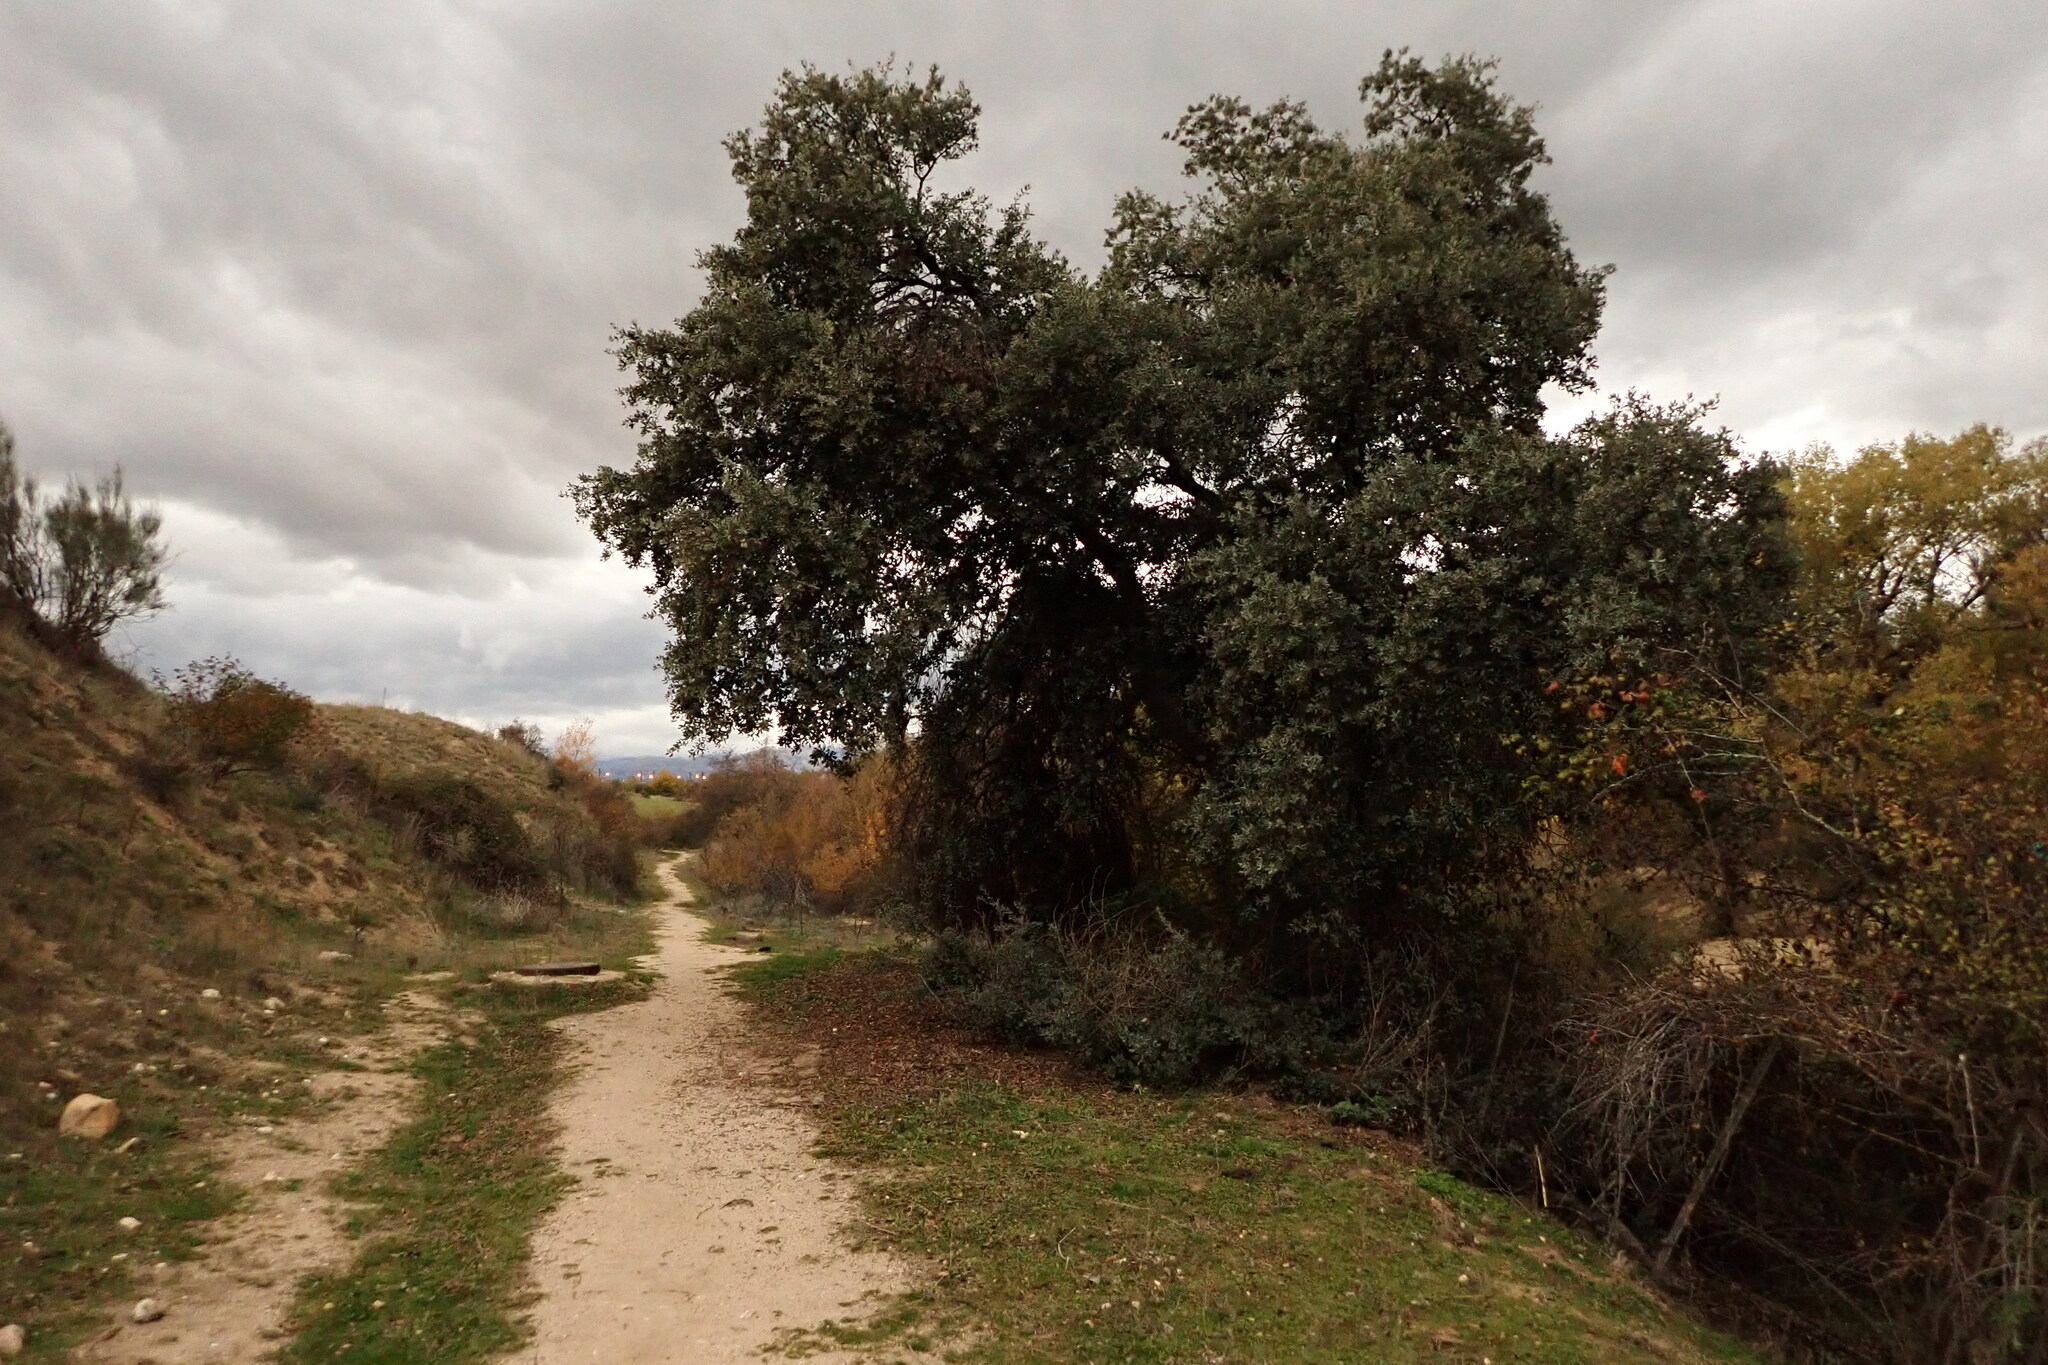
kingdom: Plantae
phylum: Tracheophyta
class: Magnoliopsida
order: Fagales
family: Fagaceae
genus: Quercus
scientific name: Quercus rotundifolia
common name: Holm oak
